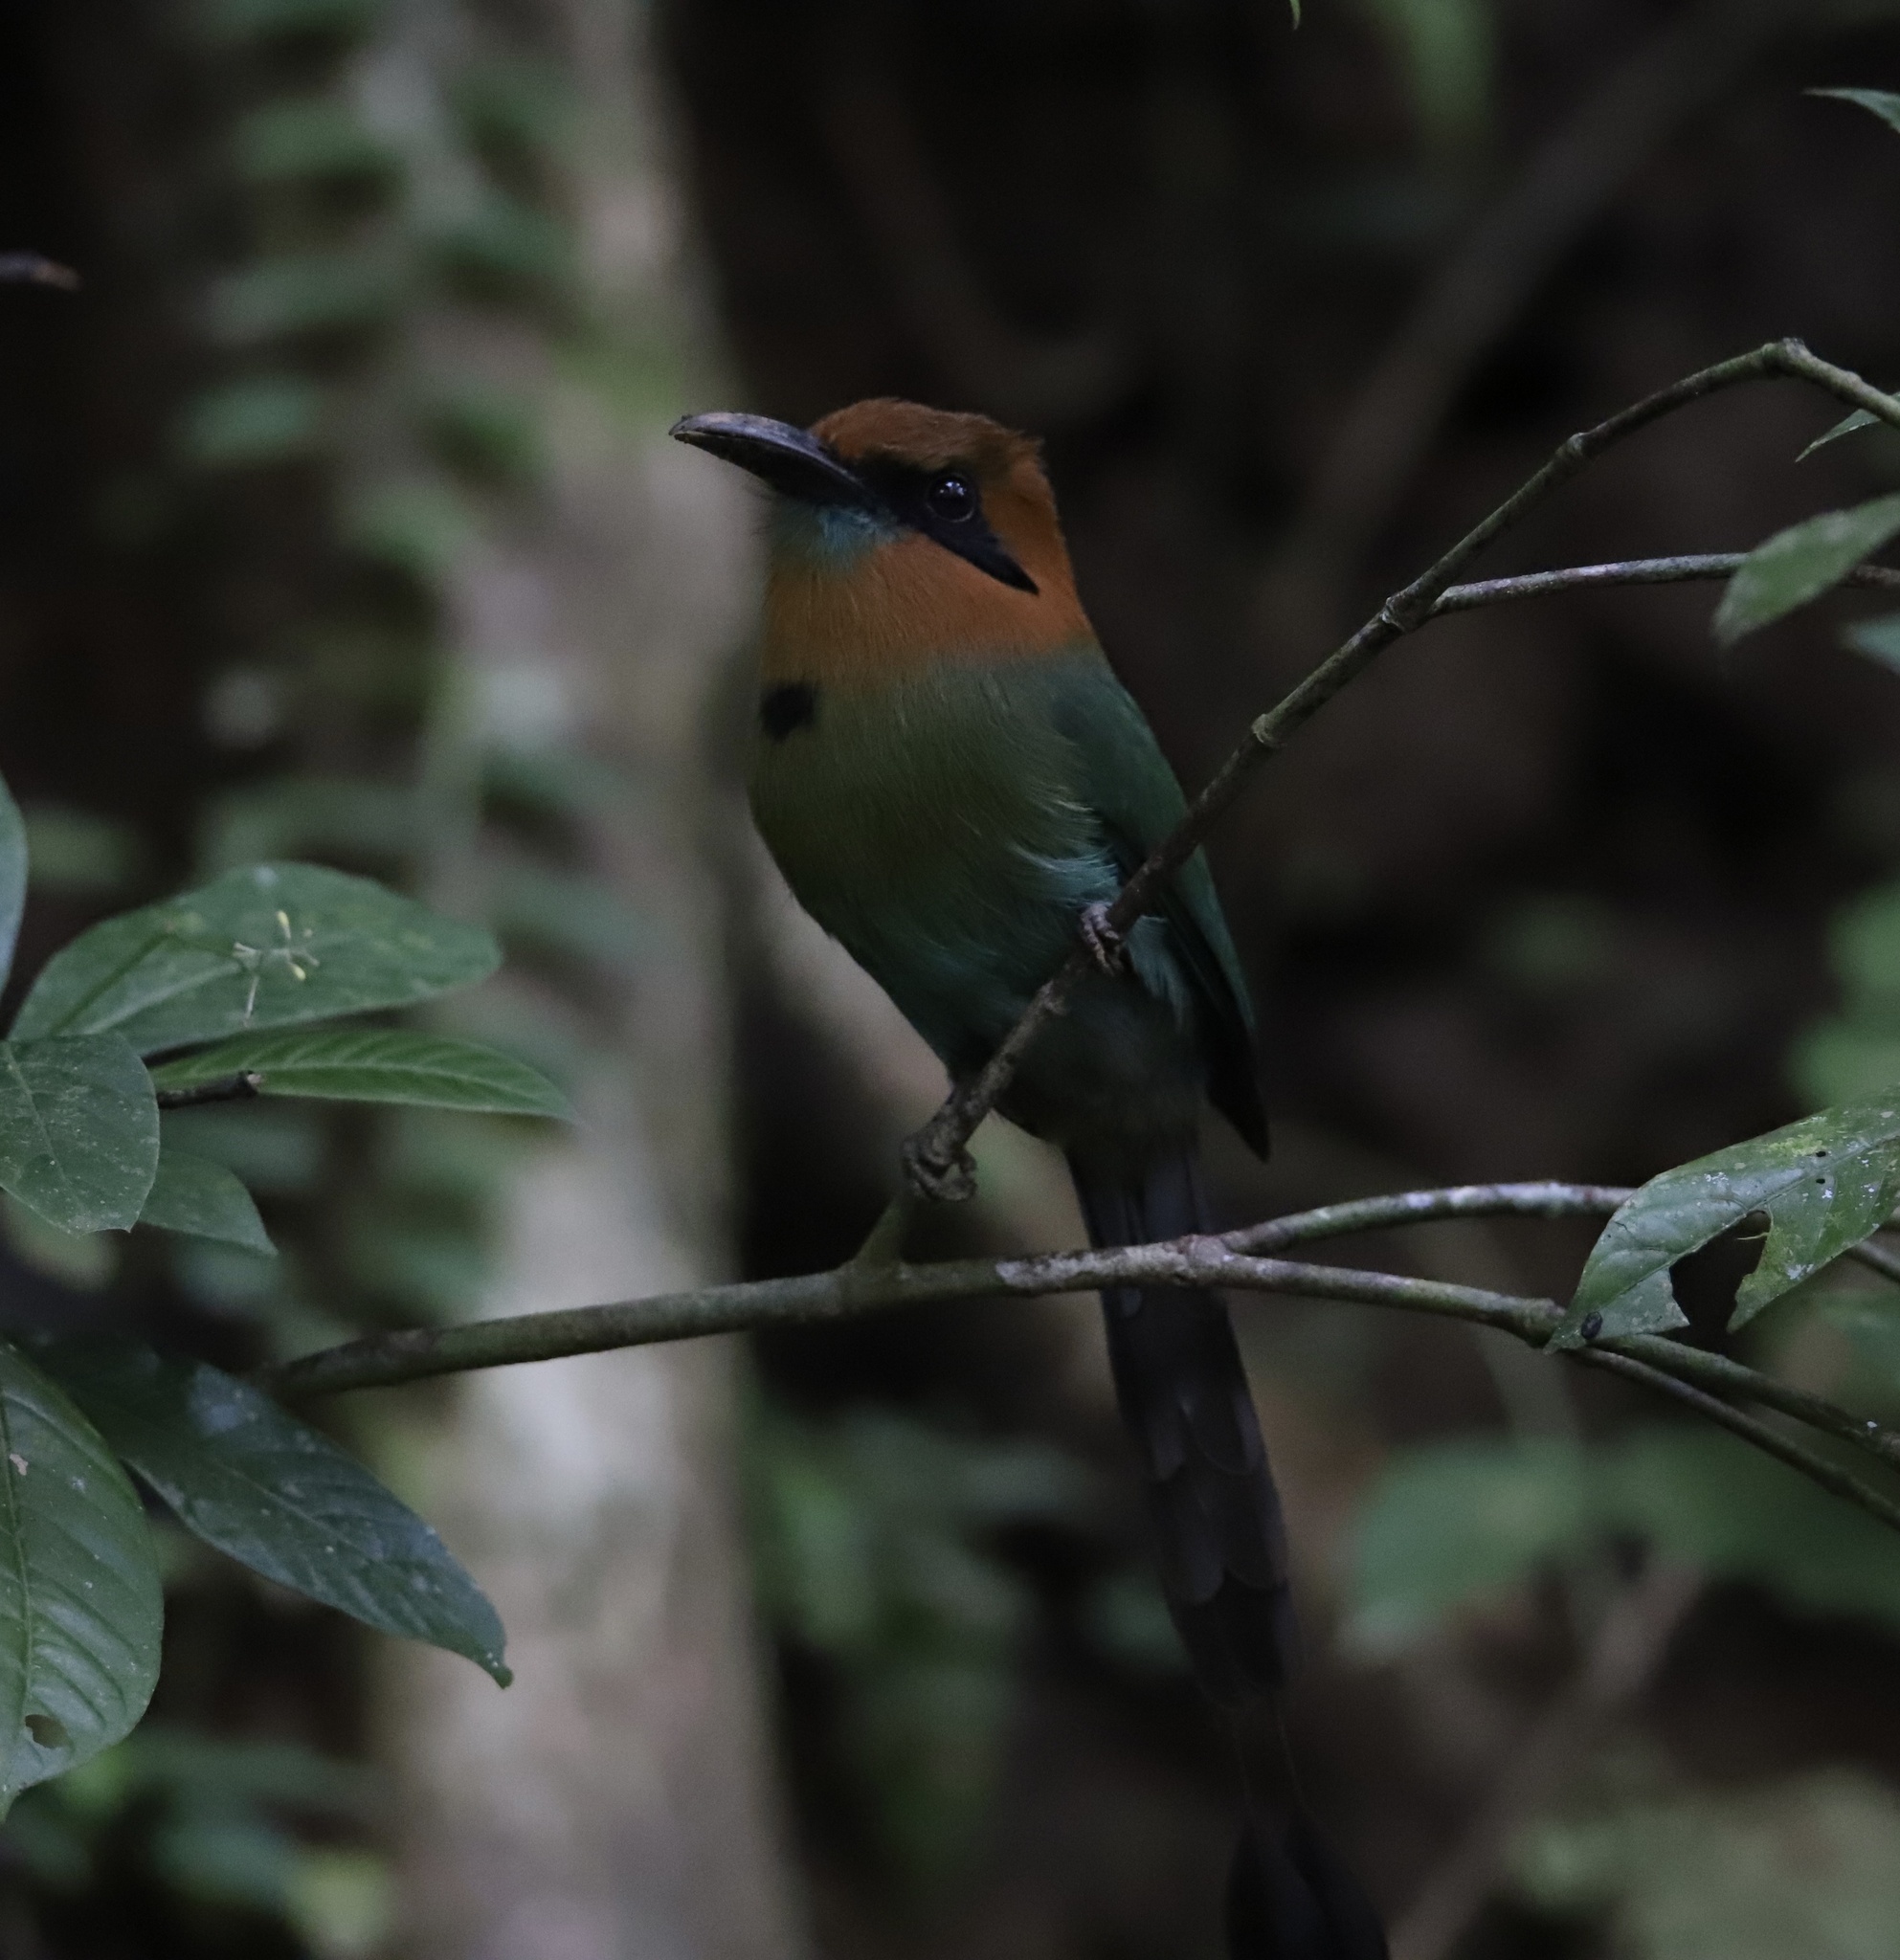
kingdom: Animalia
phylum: Chordata
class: Aves
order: Coraciiformes
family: Momotidae
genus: Electron
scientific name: Electron platyrhynchum
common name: Broad-billed motmot
